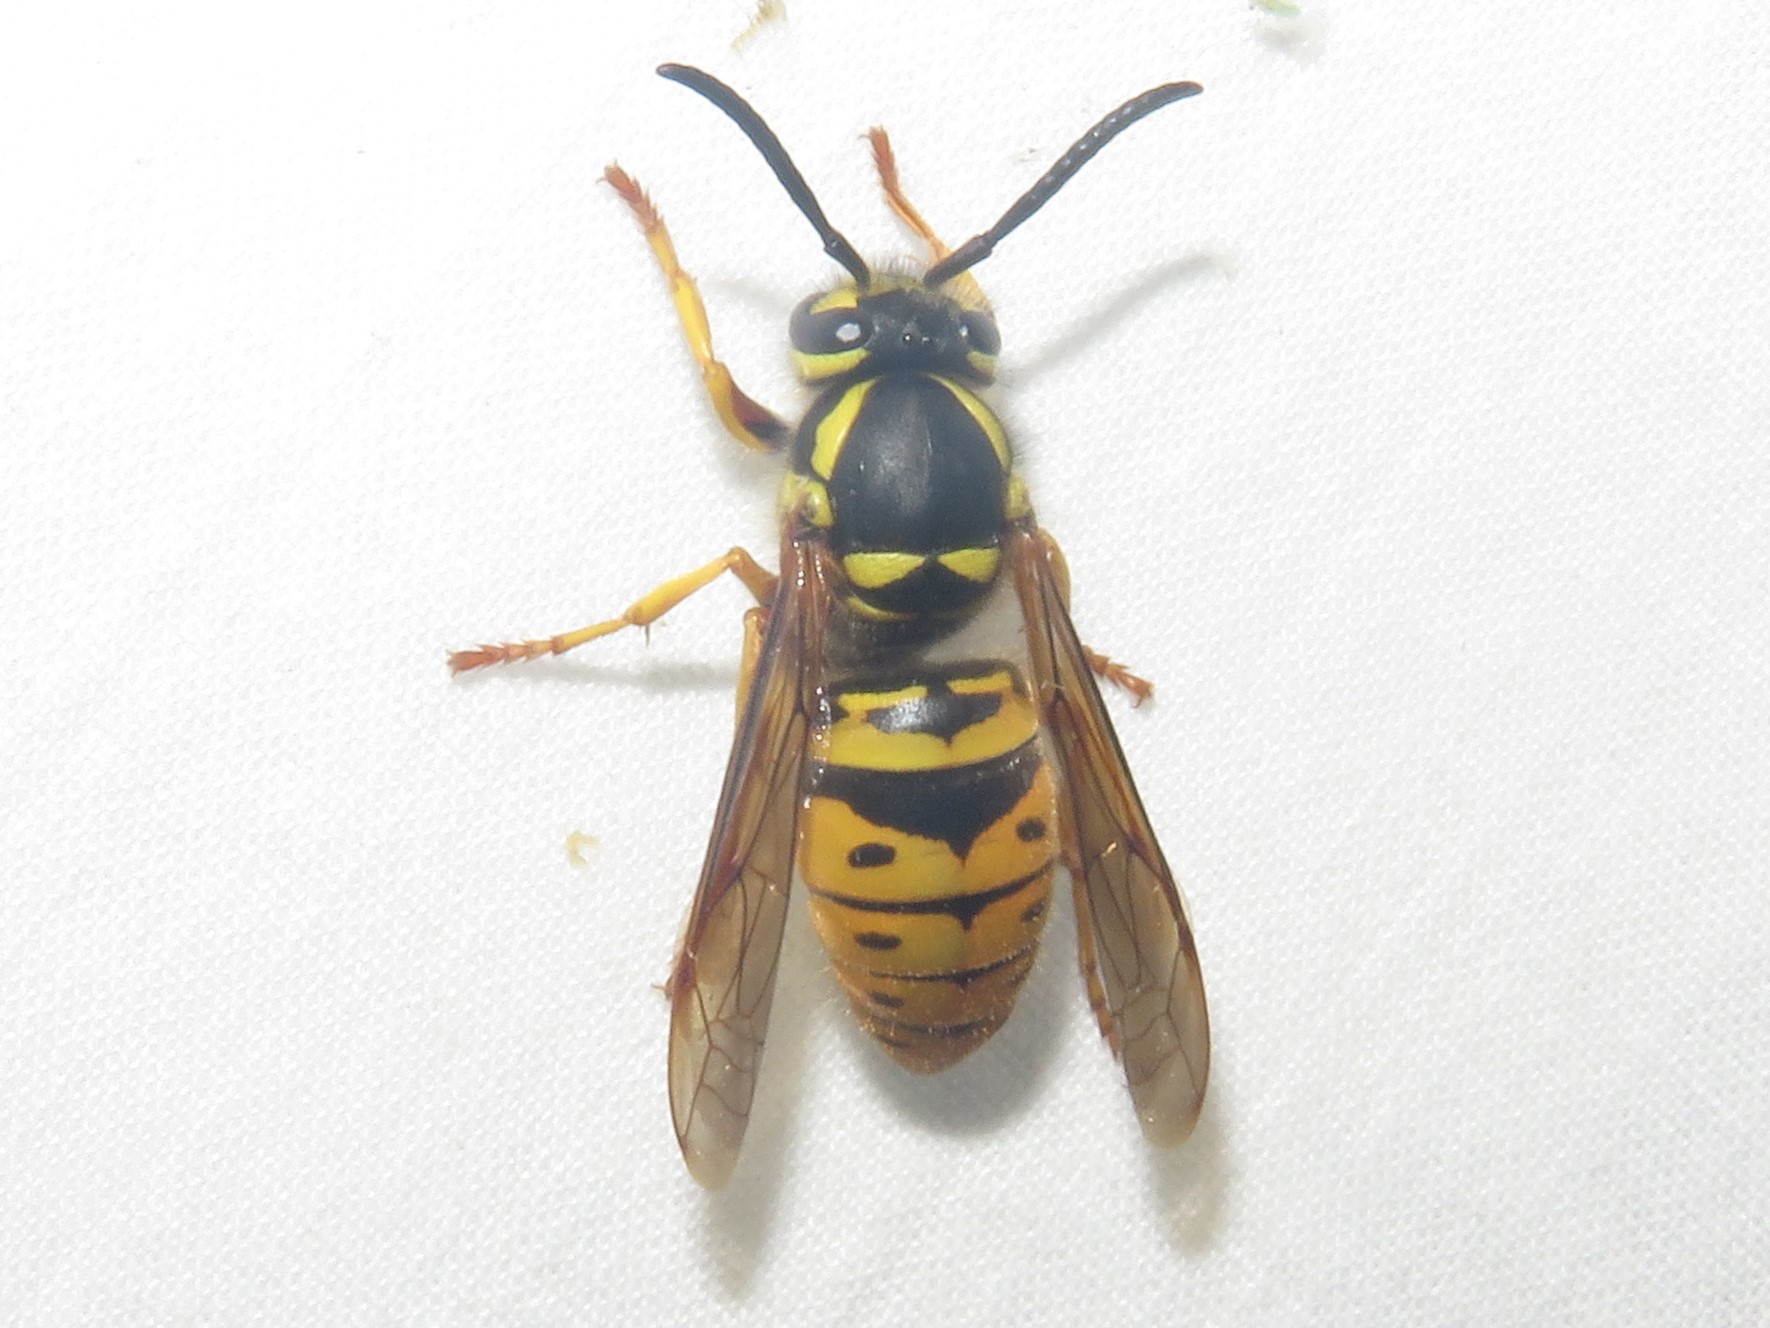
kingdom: Animalia
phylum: Arthropoda
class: Insecta
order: Hymenoptera
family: Vespidae
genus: Vespula
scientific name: Vespula maculifrons
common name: Eastern yellowjacket
